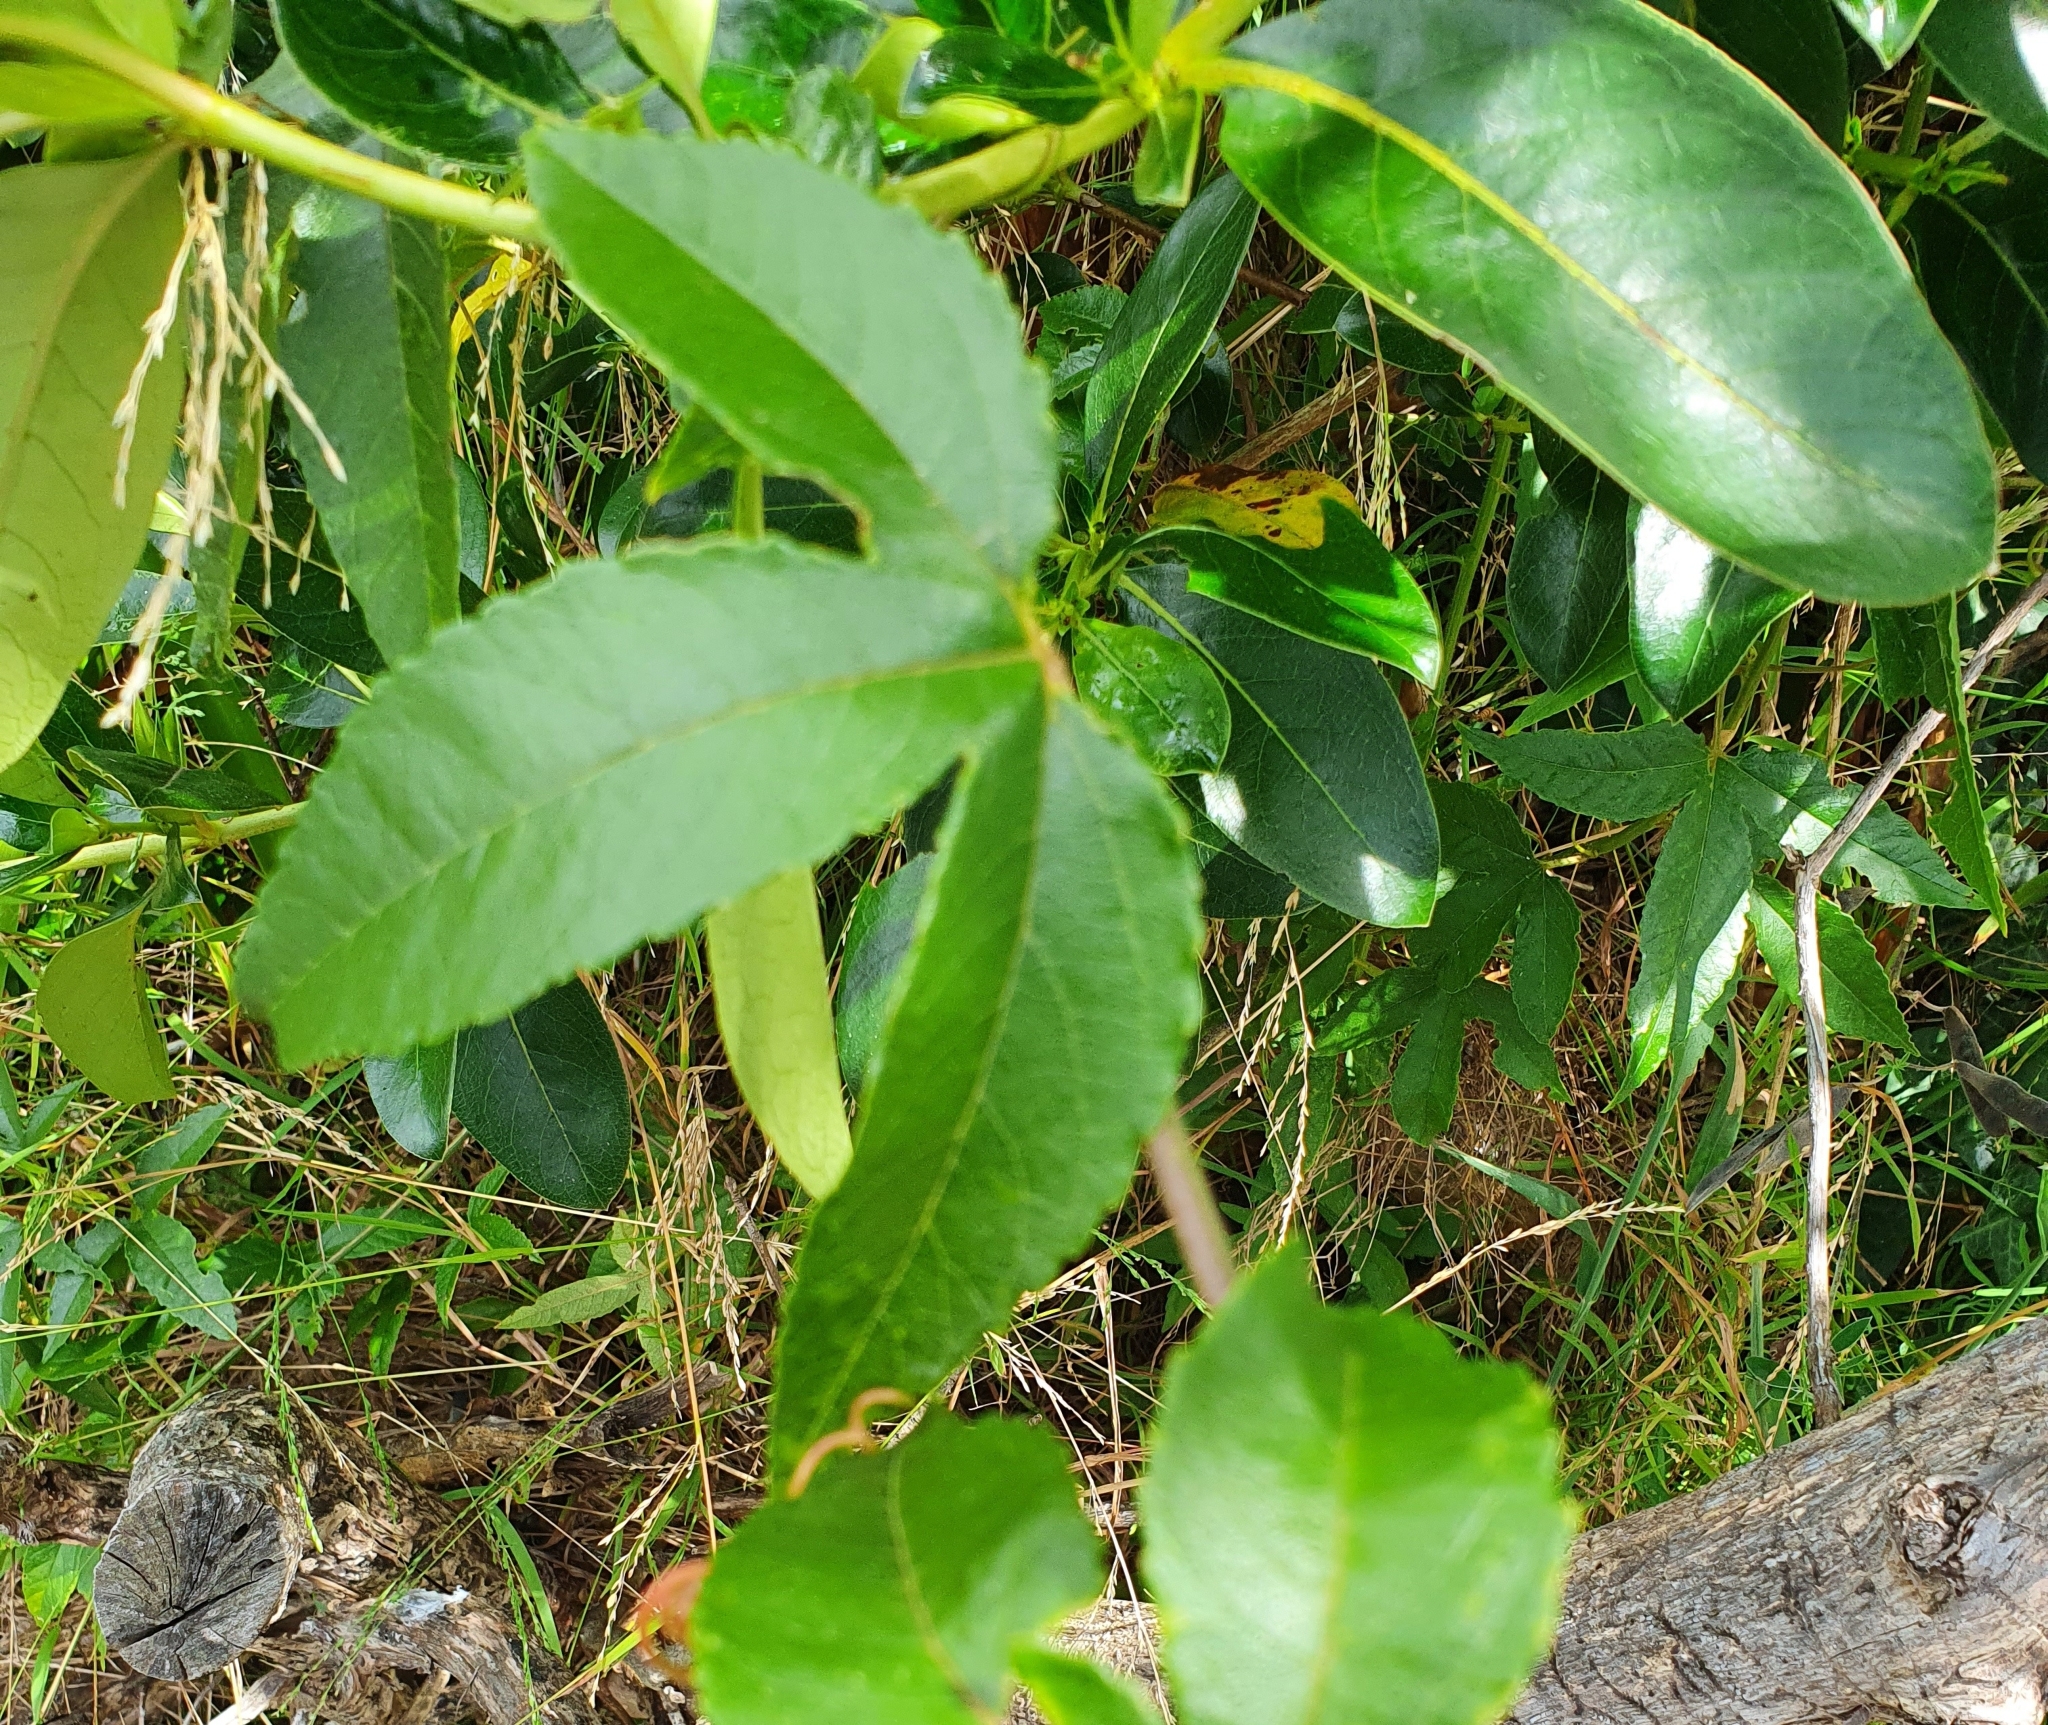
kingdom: Plantae
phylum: Tracheophyta
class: Magnoliopsida
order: Malpighiales
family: Passifloraceae
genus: Passiflora
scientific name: Passiflora tarminiana
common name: Banana poka
